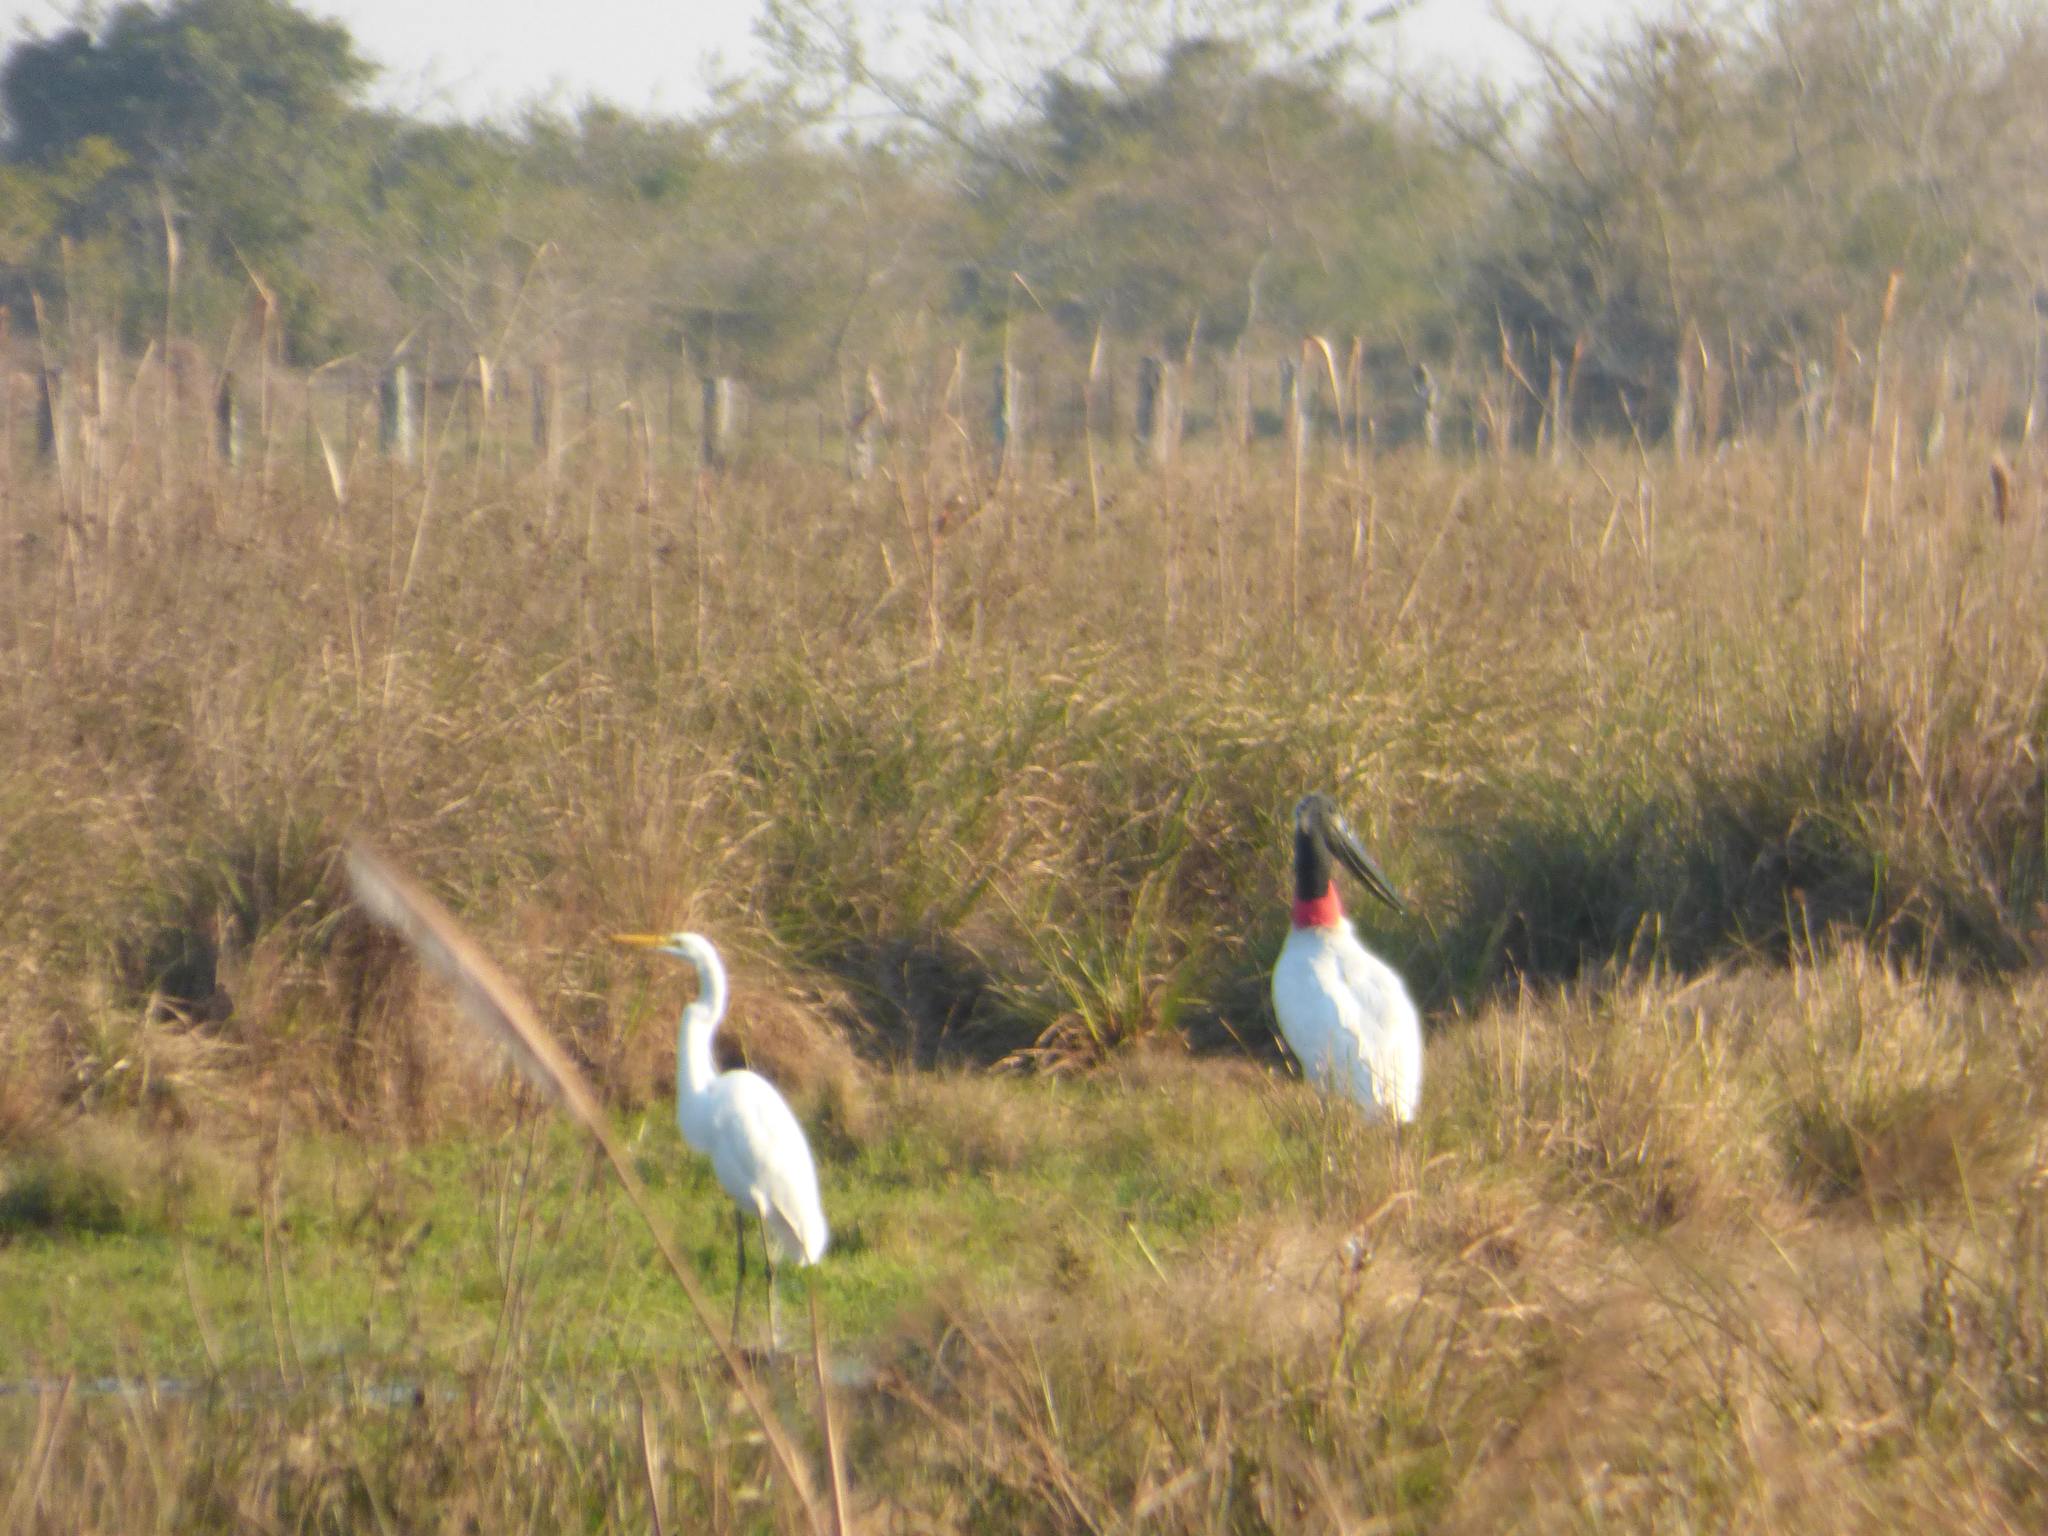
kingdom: Animalia
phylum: Chordata
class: Aves
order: Ciconiiformes
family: Ciconiidae
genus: Jabiru
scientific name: Jabiru mycteria
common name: Jabiru
